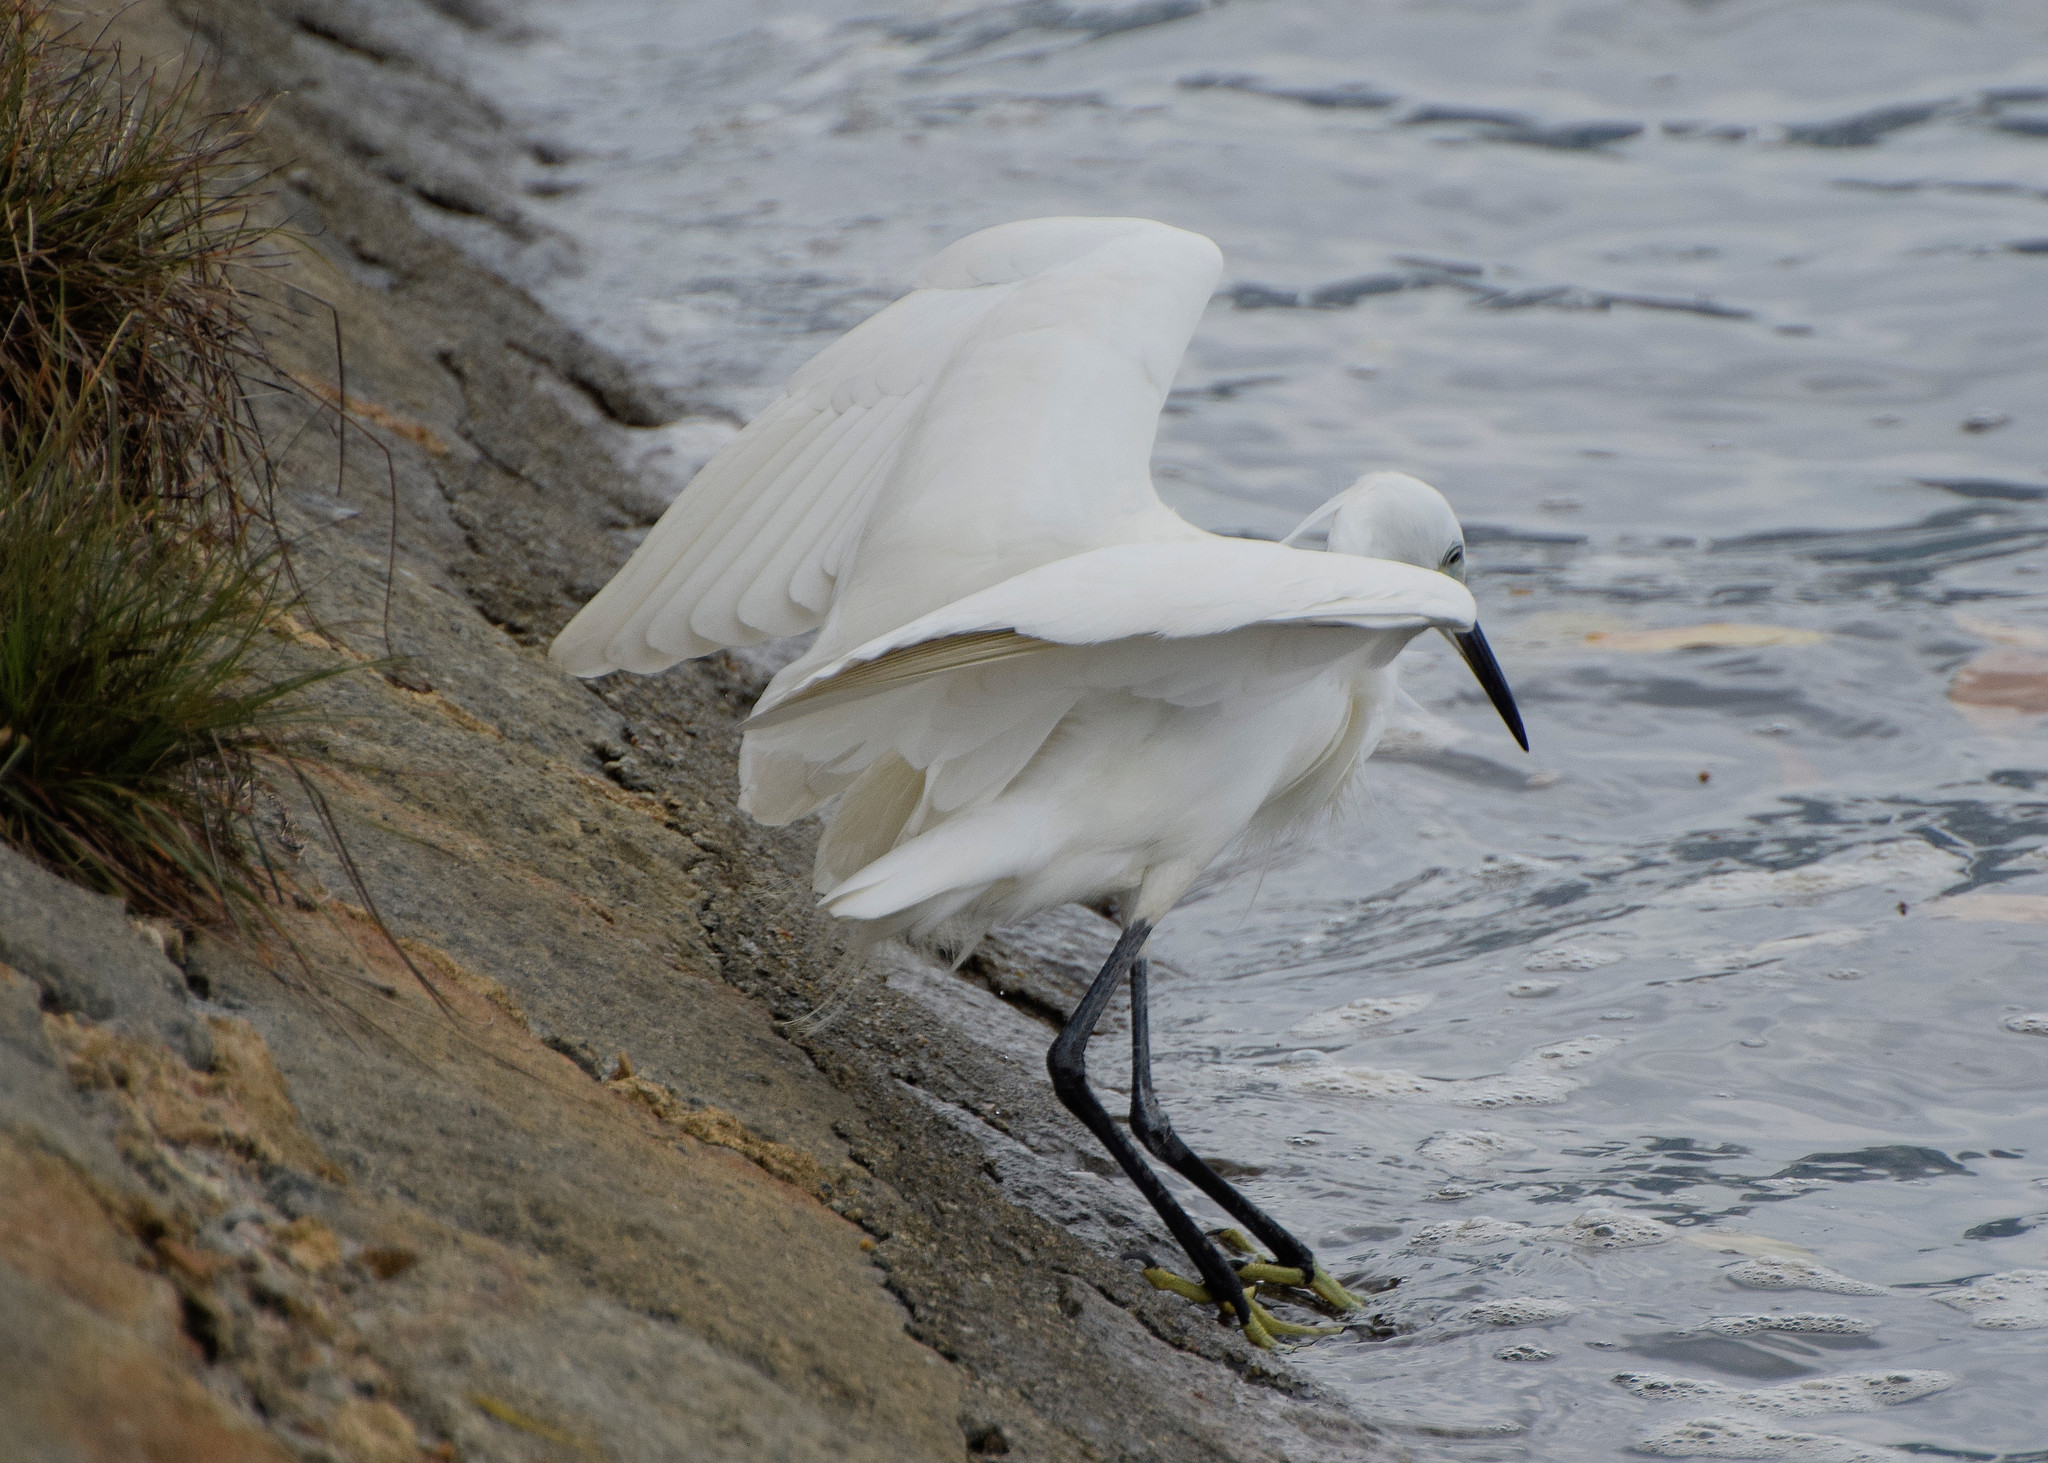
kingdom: Animalia
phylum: Chordata
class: Aves
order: Pelecaniformes
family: Ardeidae
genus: Egretta
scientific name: Egretta garzetta
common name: Little egret
